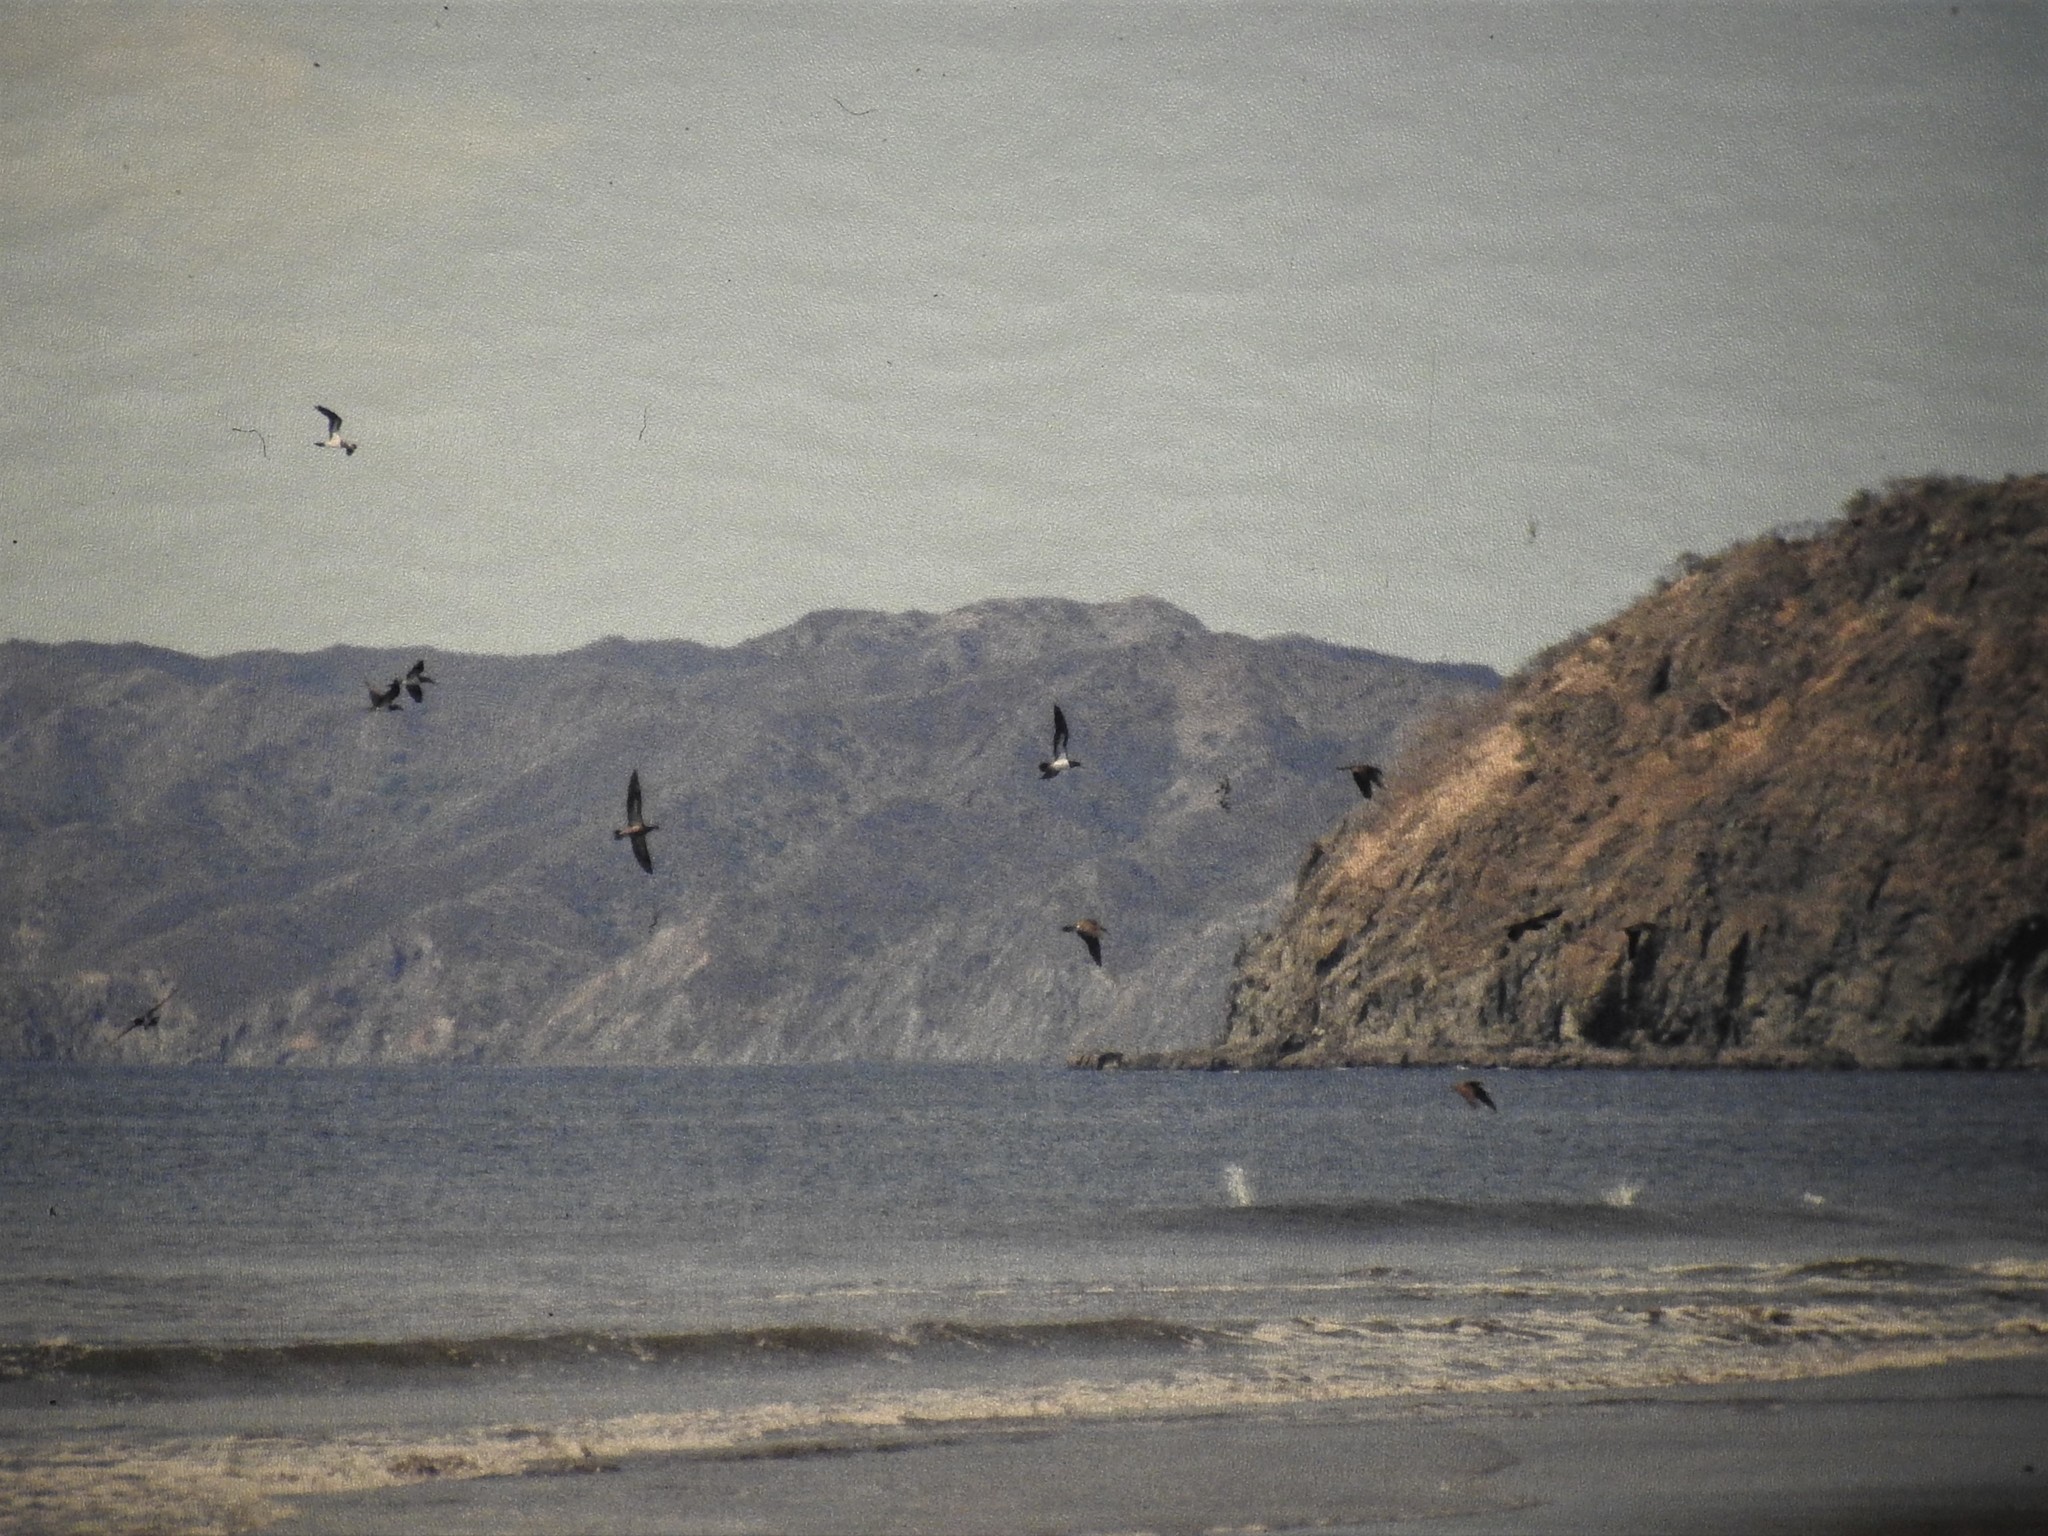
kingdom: Animalia
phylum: Chordata
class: Aves
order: Suliformes
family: Sulidae
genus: Sula
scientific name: Sula leucogaster
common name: Brown booby
